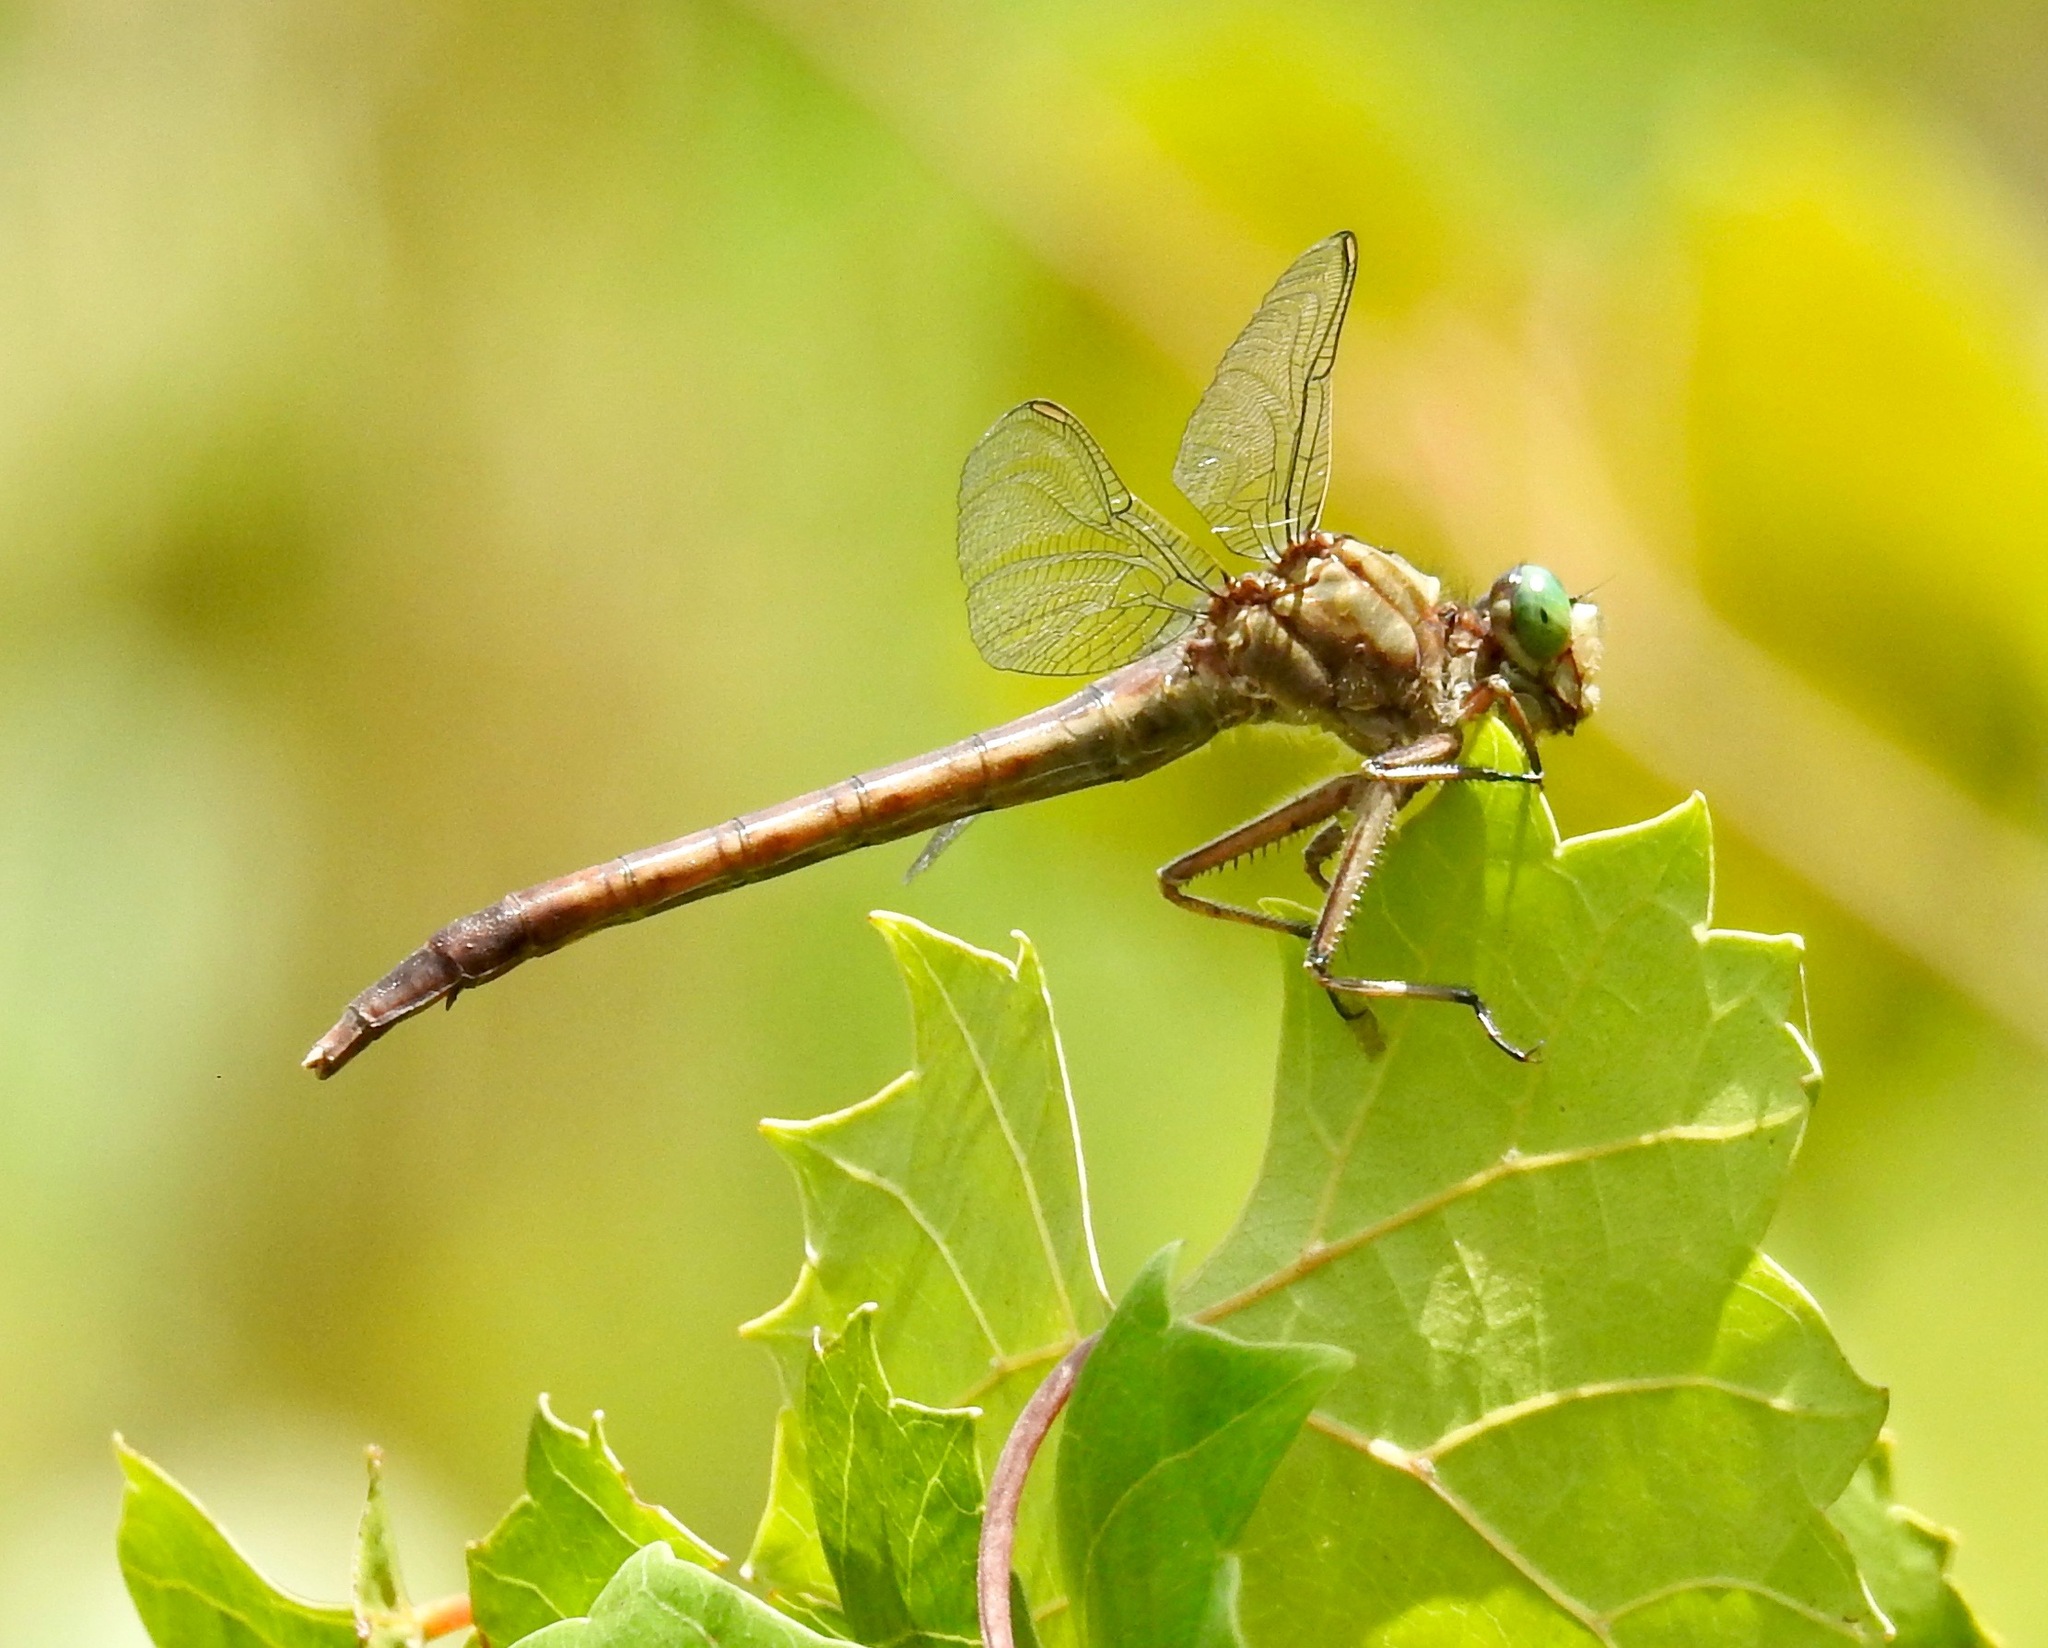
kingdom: Animalia
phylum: Arthropoda
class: Insecta
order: Odonata
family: Gomphidae
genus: Arigomphus
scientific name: Arigomphus pallidus
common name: Gray-green clubtail
